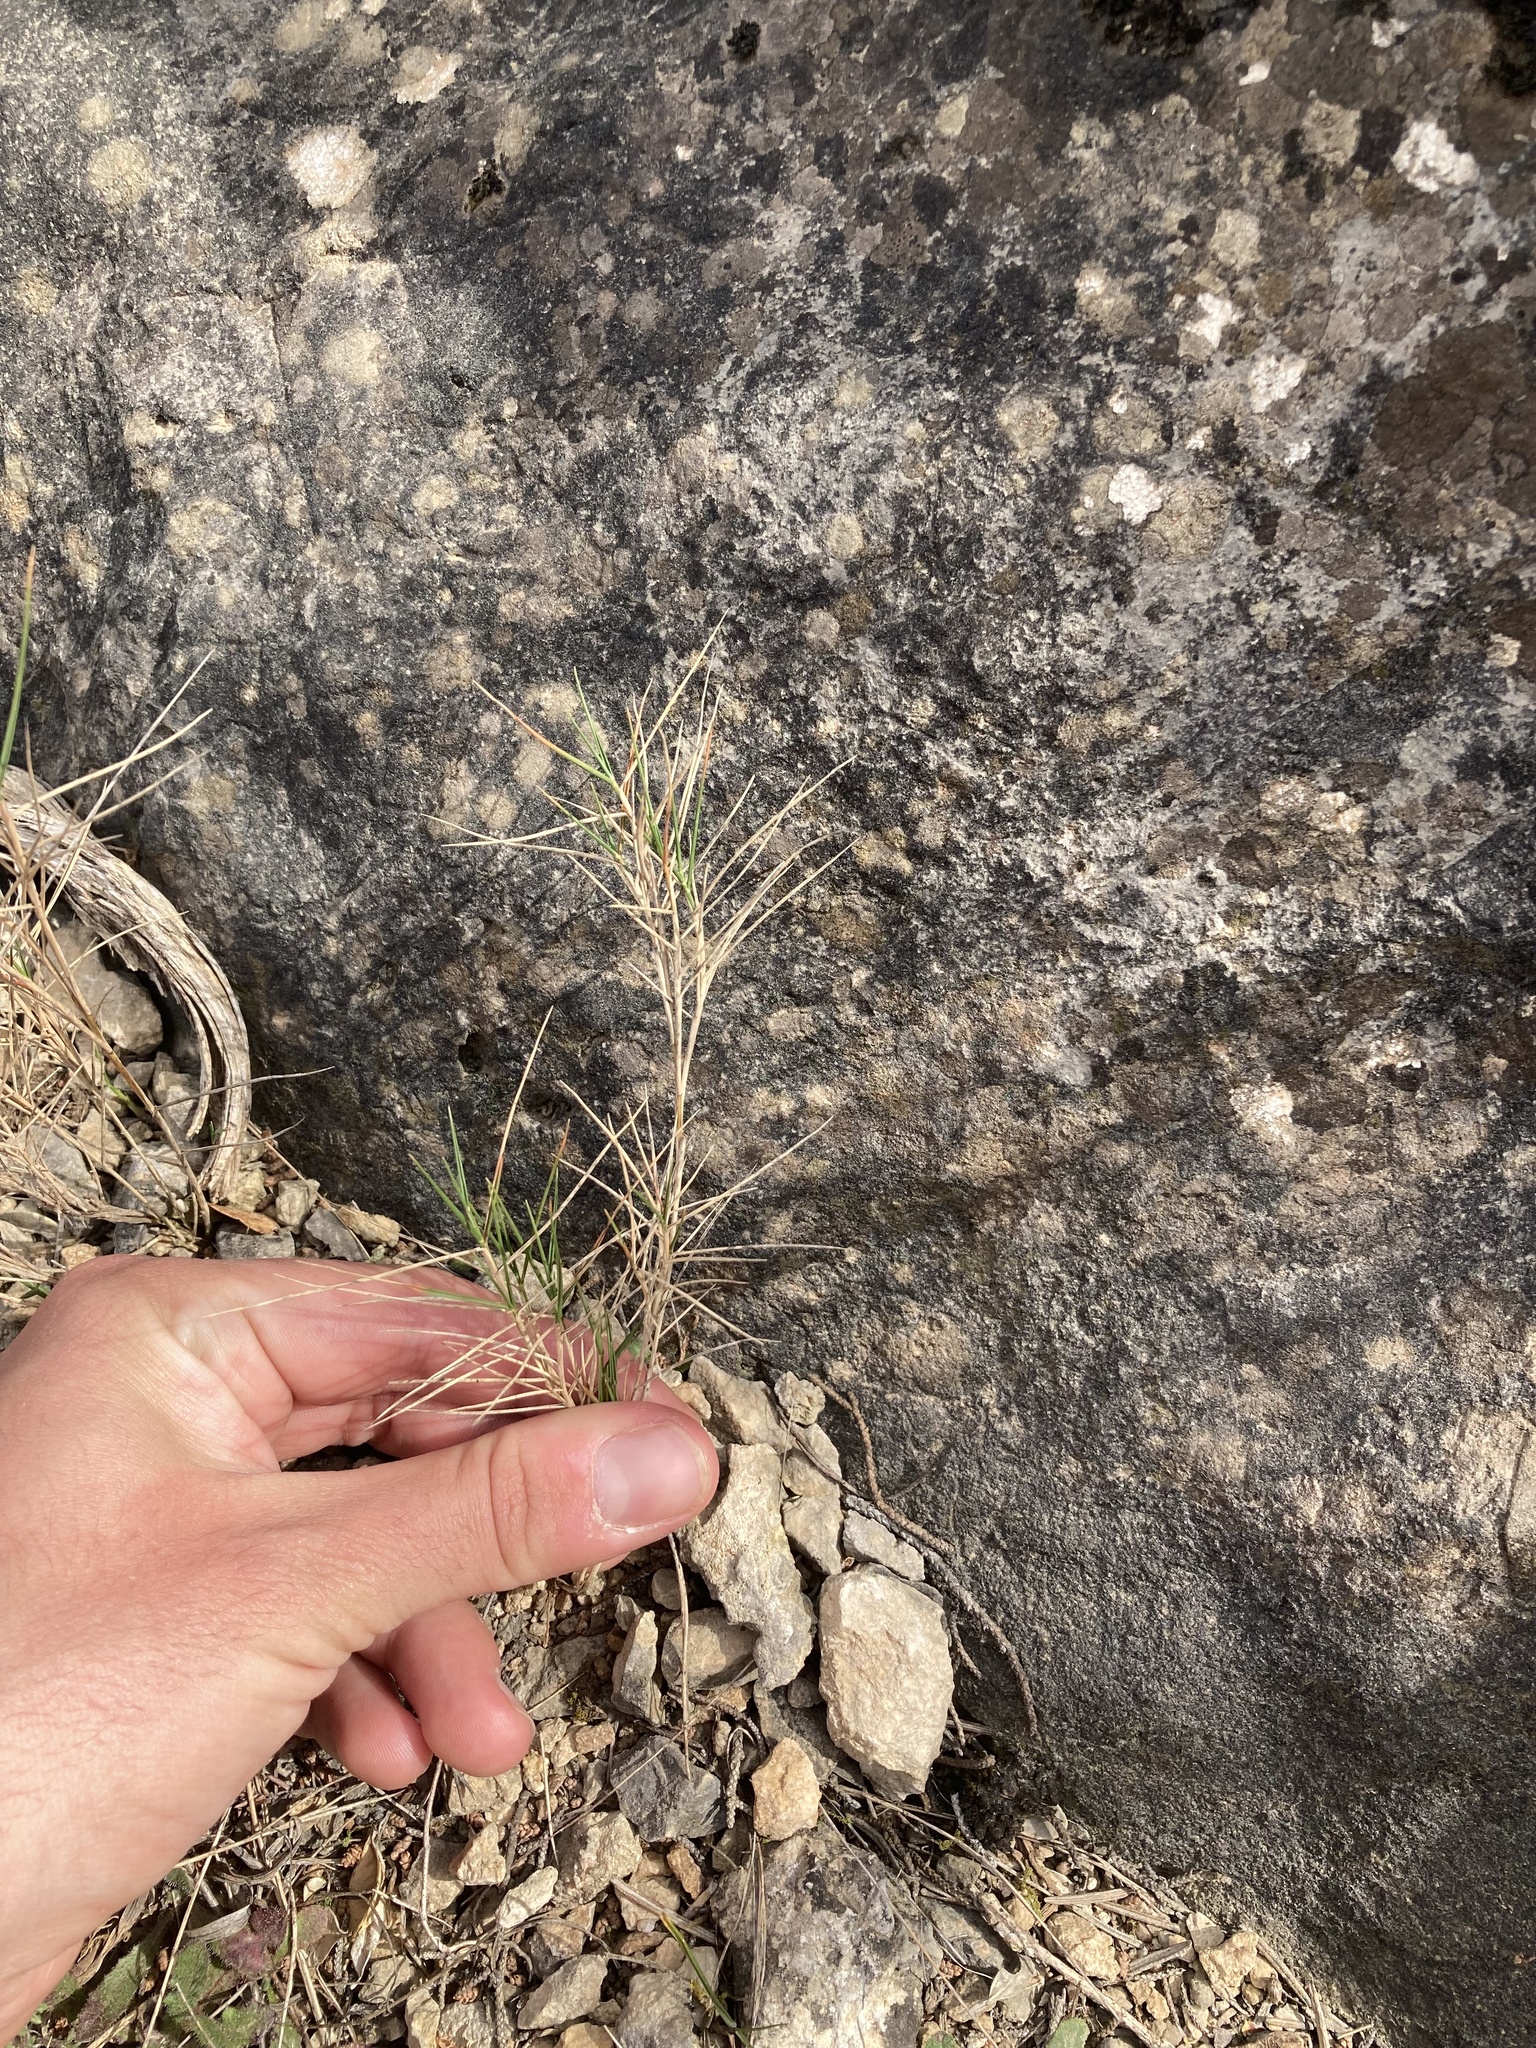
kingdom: Plantae
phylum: Tracheophyta
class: Liliopsida
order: Poales
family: Poaceae
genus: Brachypodium
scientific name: Brachypodium retusum
